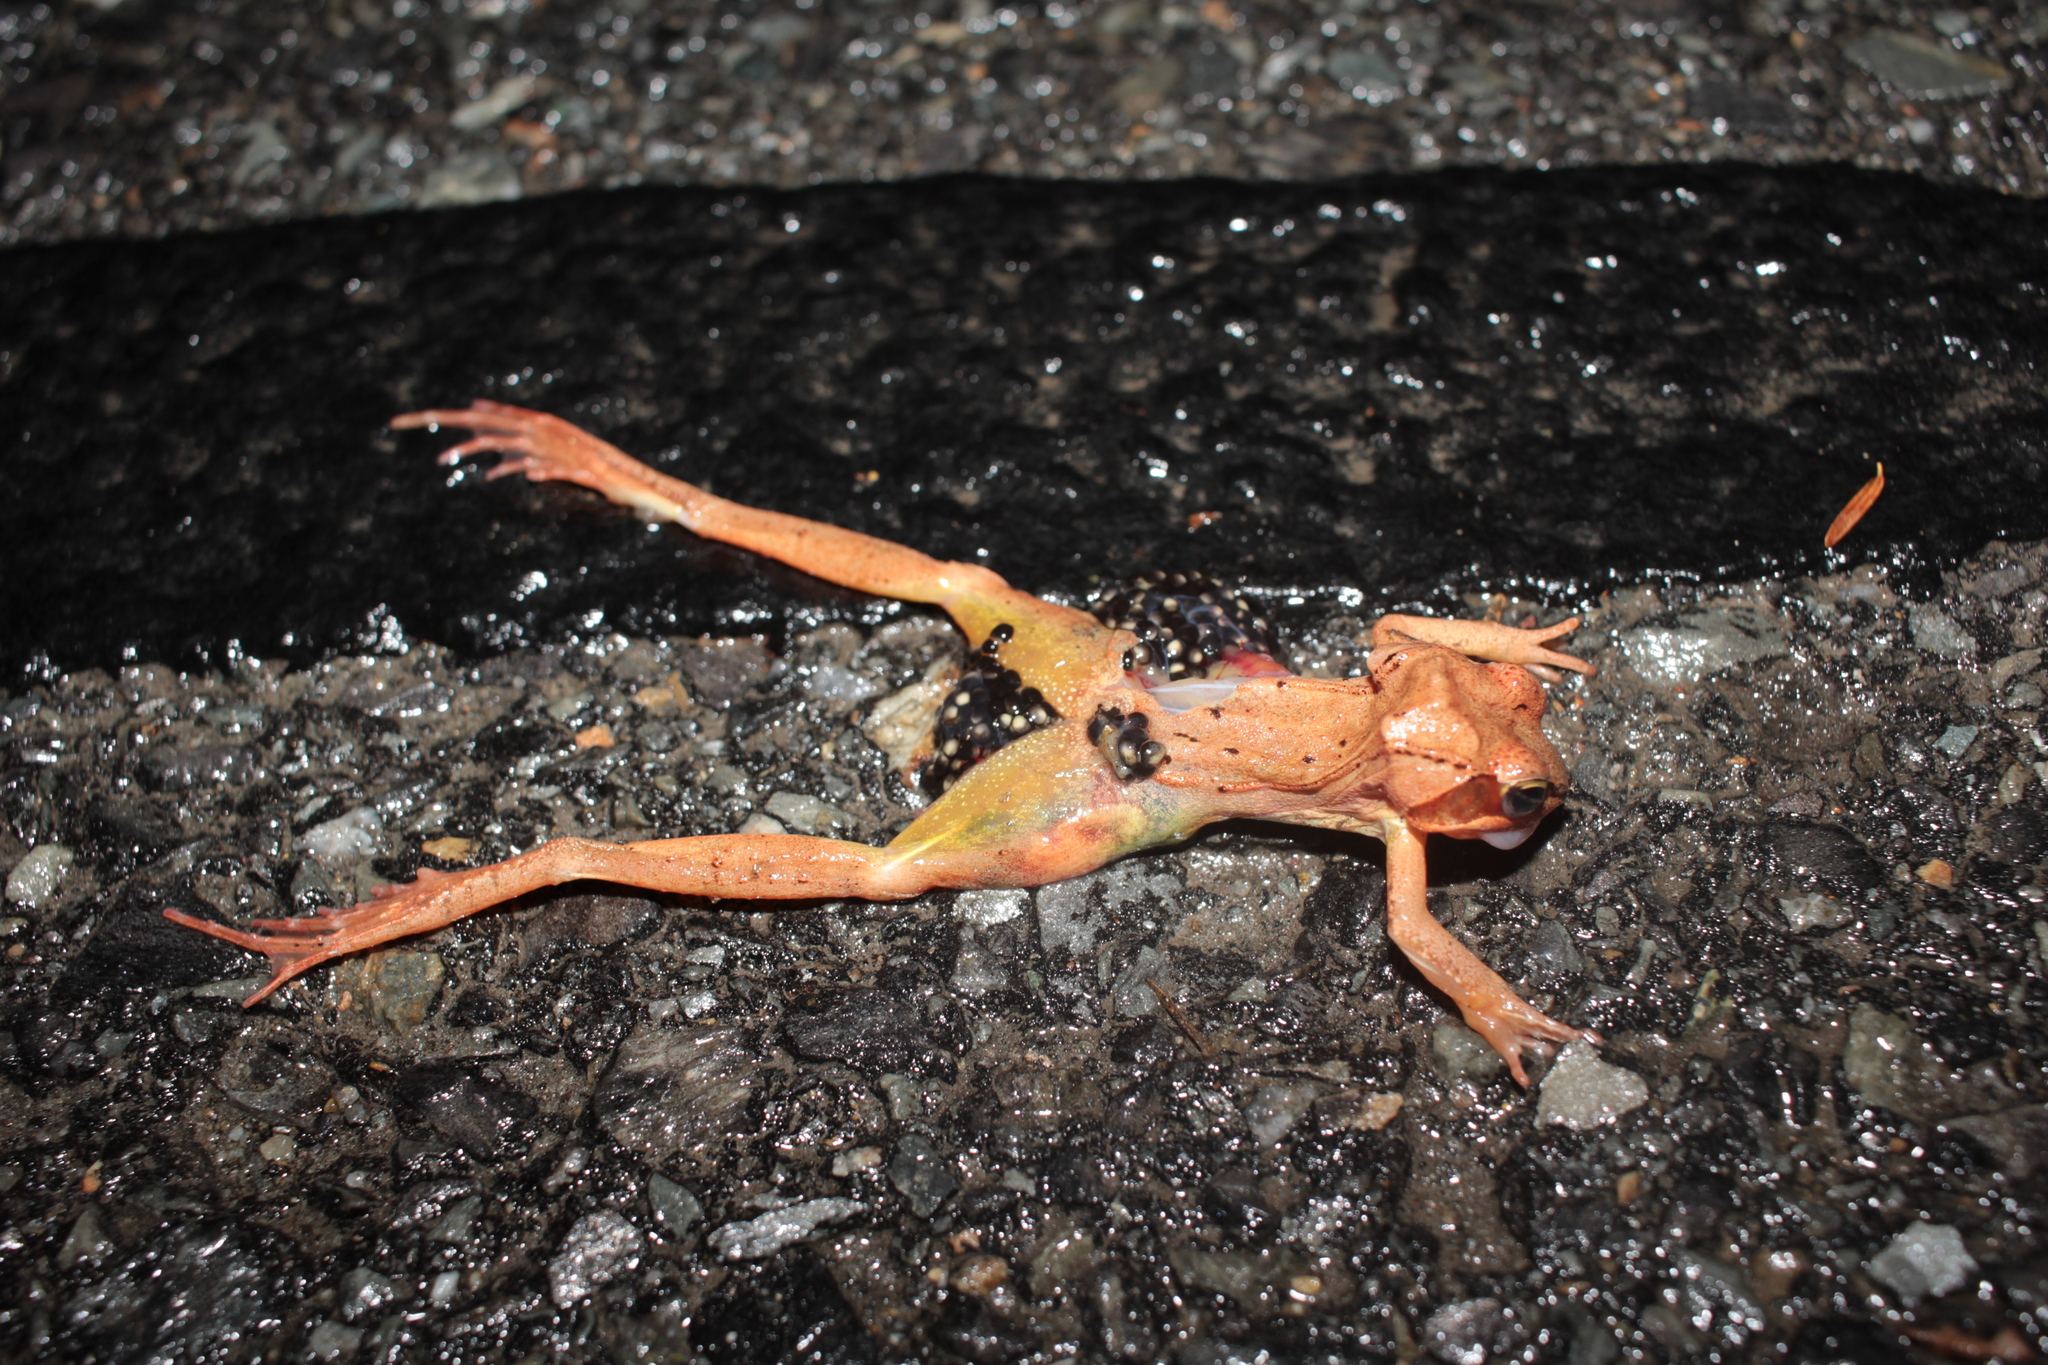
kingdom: Animalia
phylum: Chordata
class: Amphibia
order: Anura
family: Ranidae
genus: Lithobates
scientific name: Lithobates sylvaticus
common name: Wood frog
